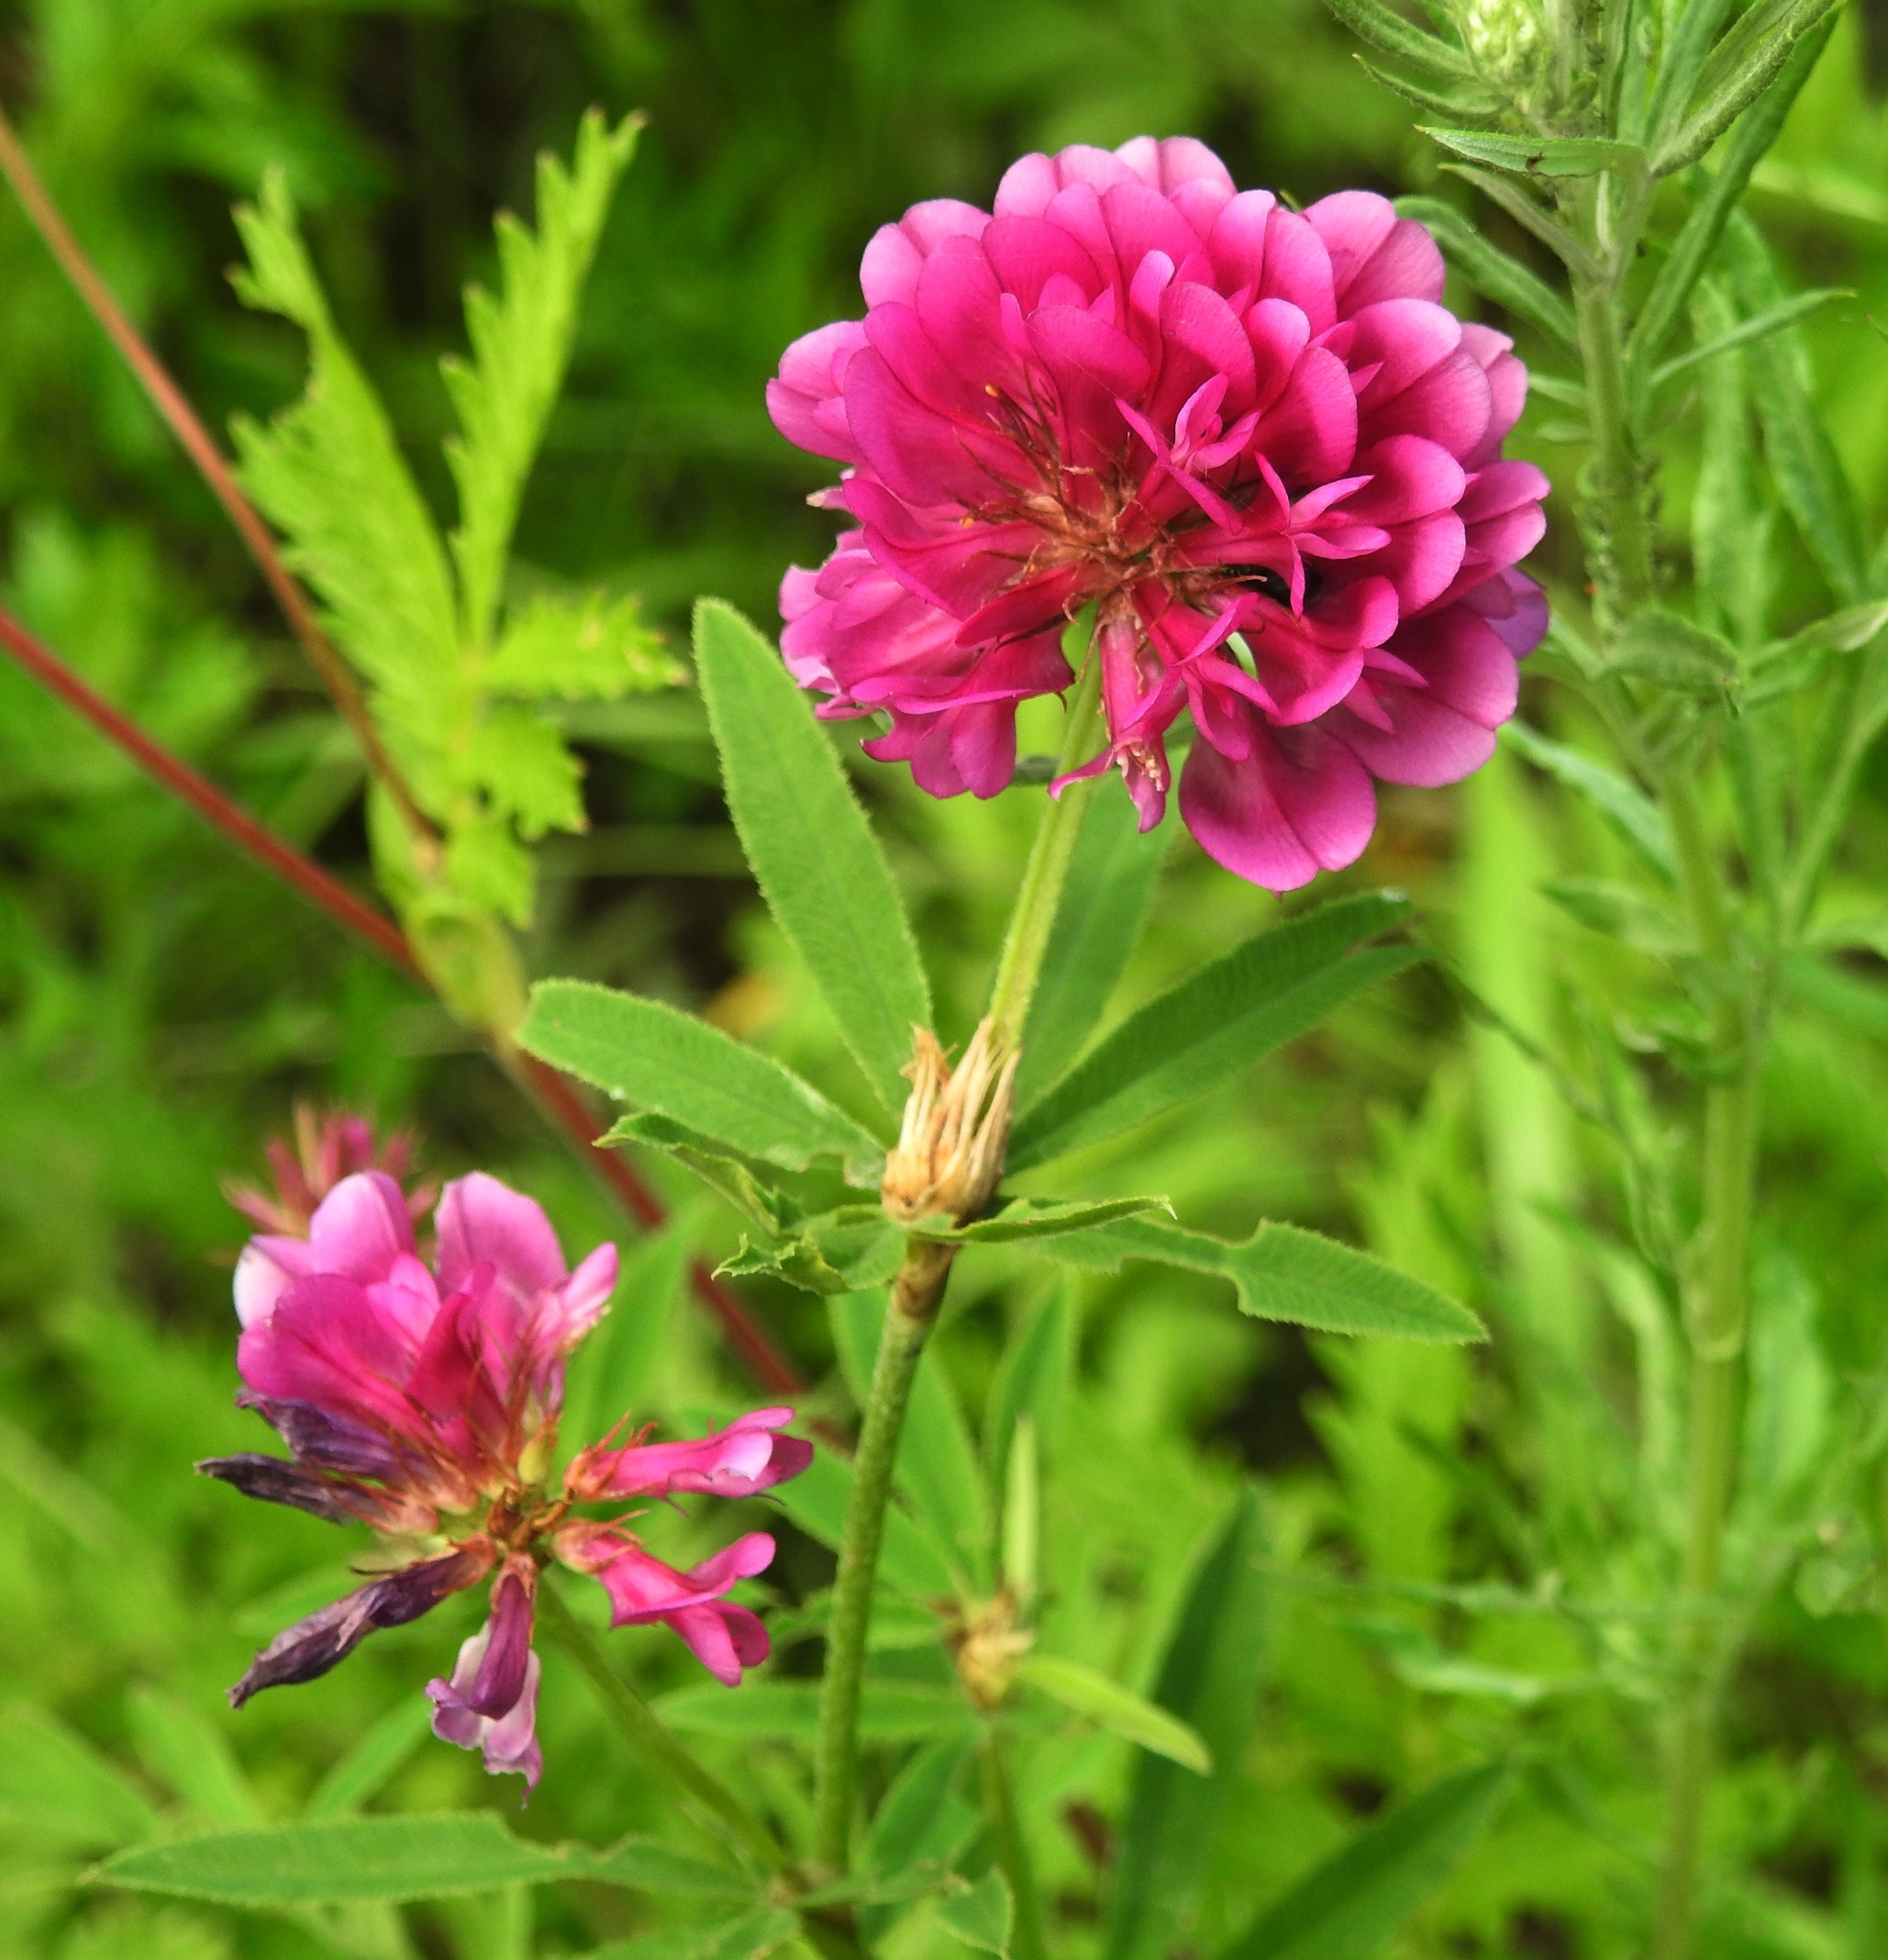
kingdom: Plantae
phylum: Tracheophyta
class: Magnoliopsida
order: Fabales
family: Fabaceae
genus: Trifolium
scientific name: Trifolium lupinaster
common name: Lupine clover
